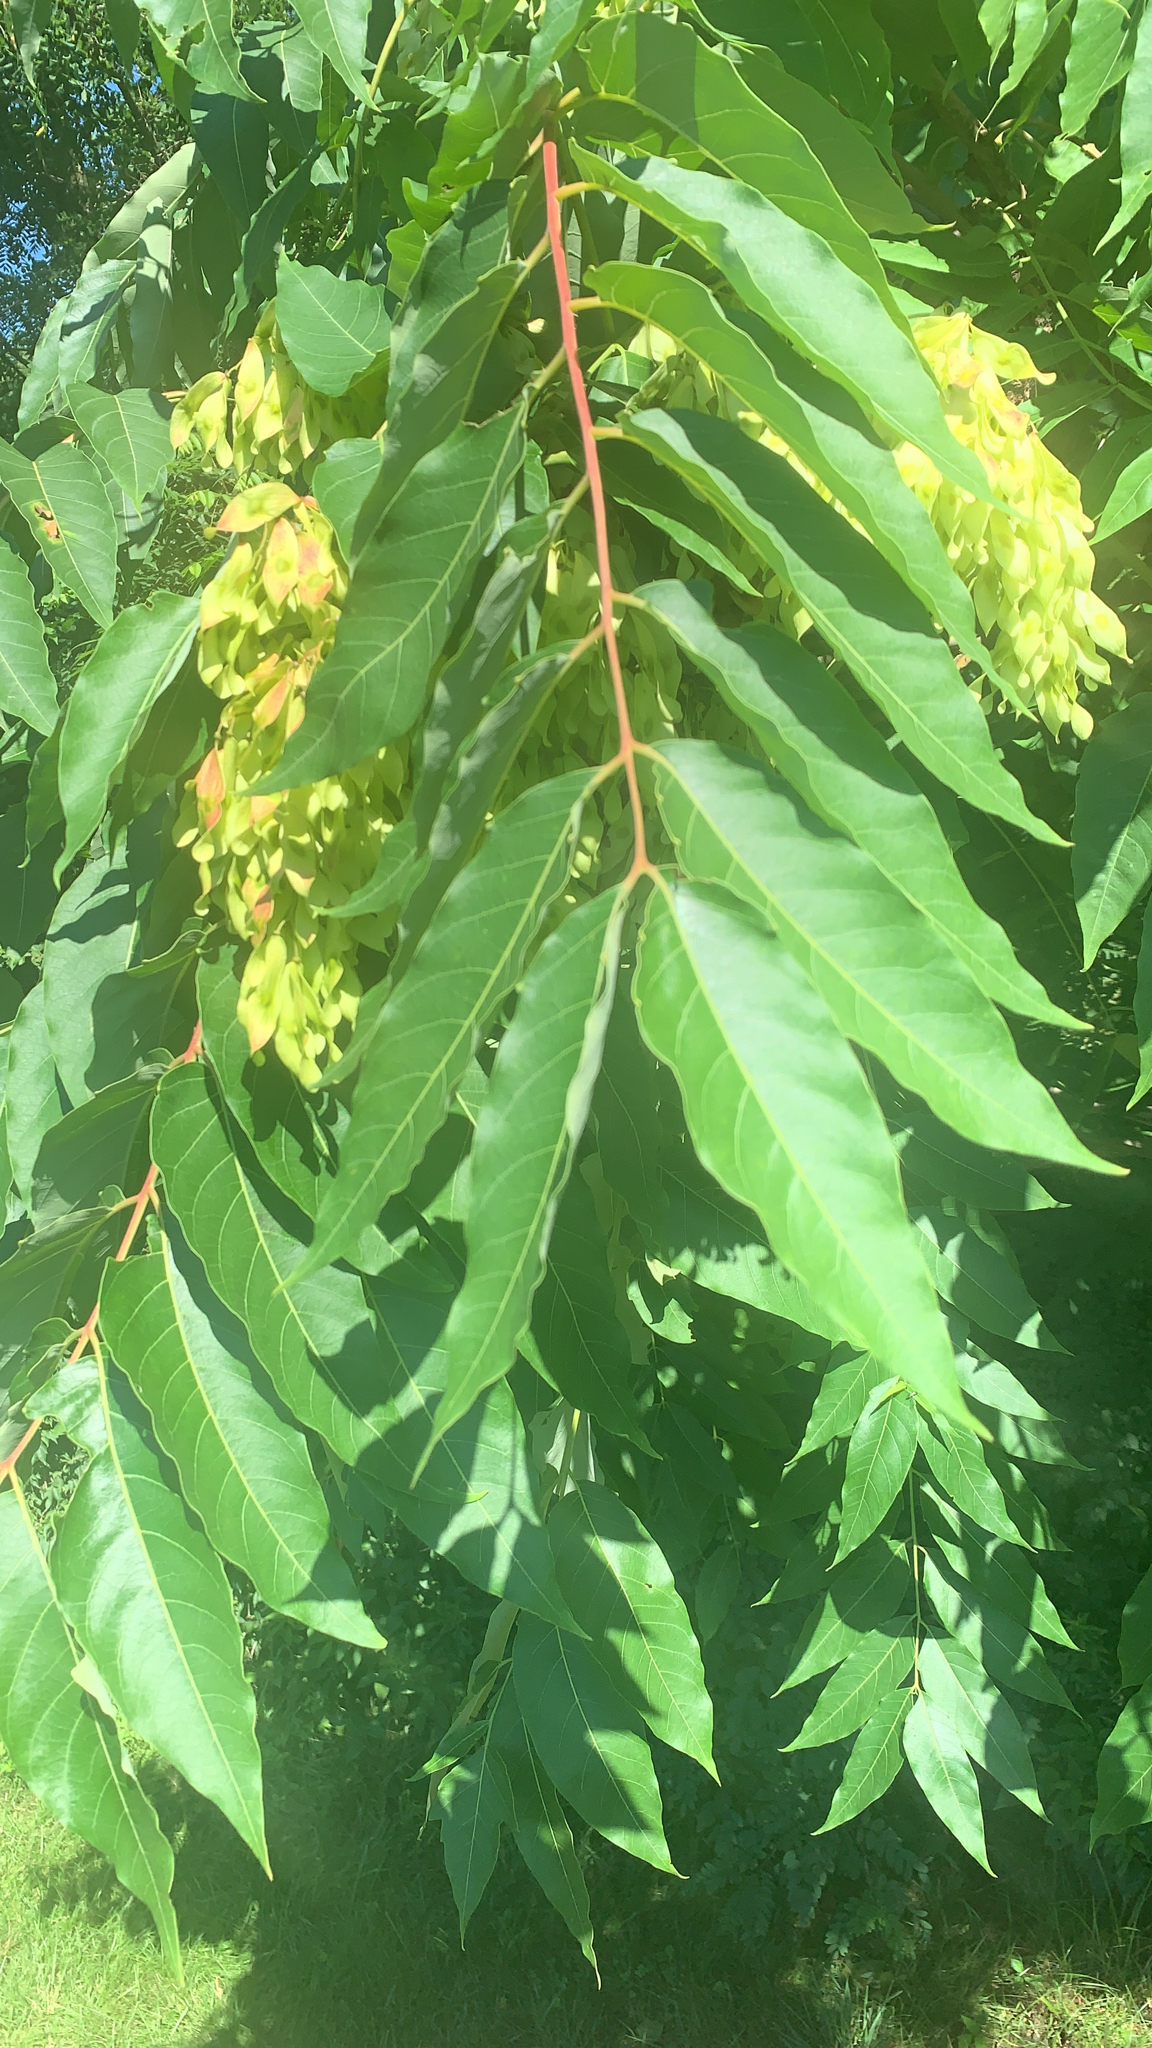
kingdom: Plantae
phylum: Tracheophyta
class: Magnoliopsida
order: Sapindales
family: Simaroubaceae
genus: Ailanthus
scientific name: Ailanthus altissima
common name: Tree-of-heaven
